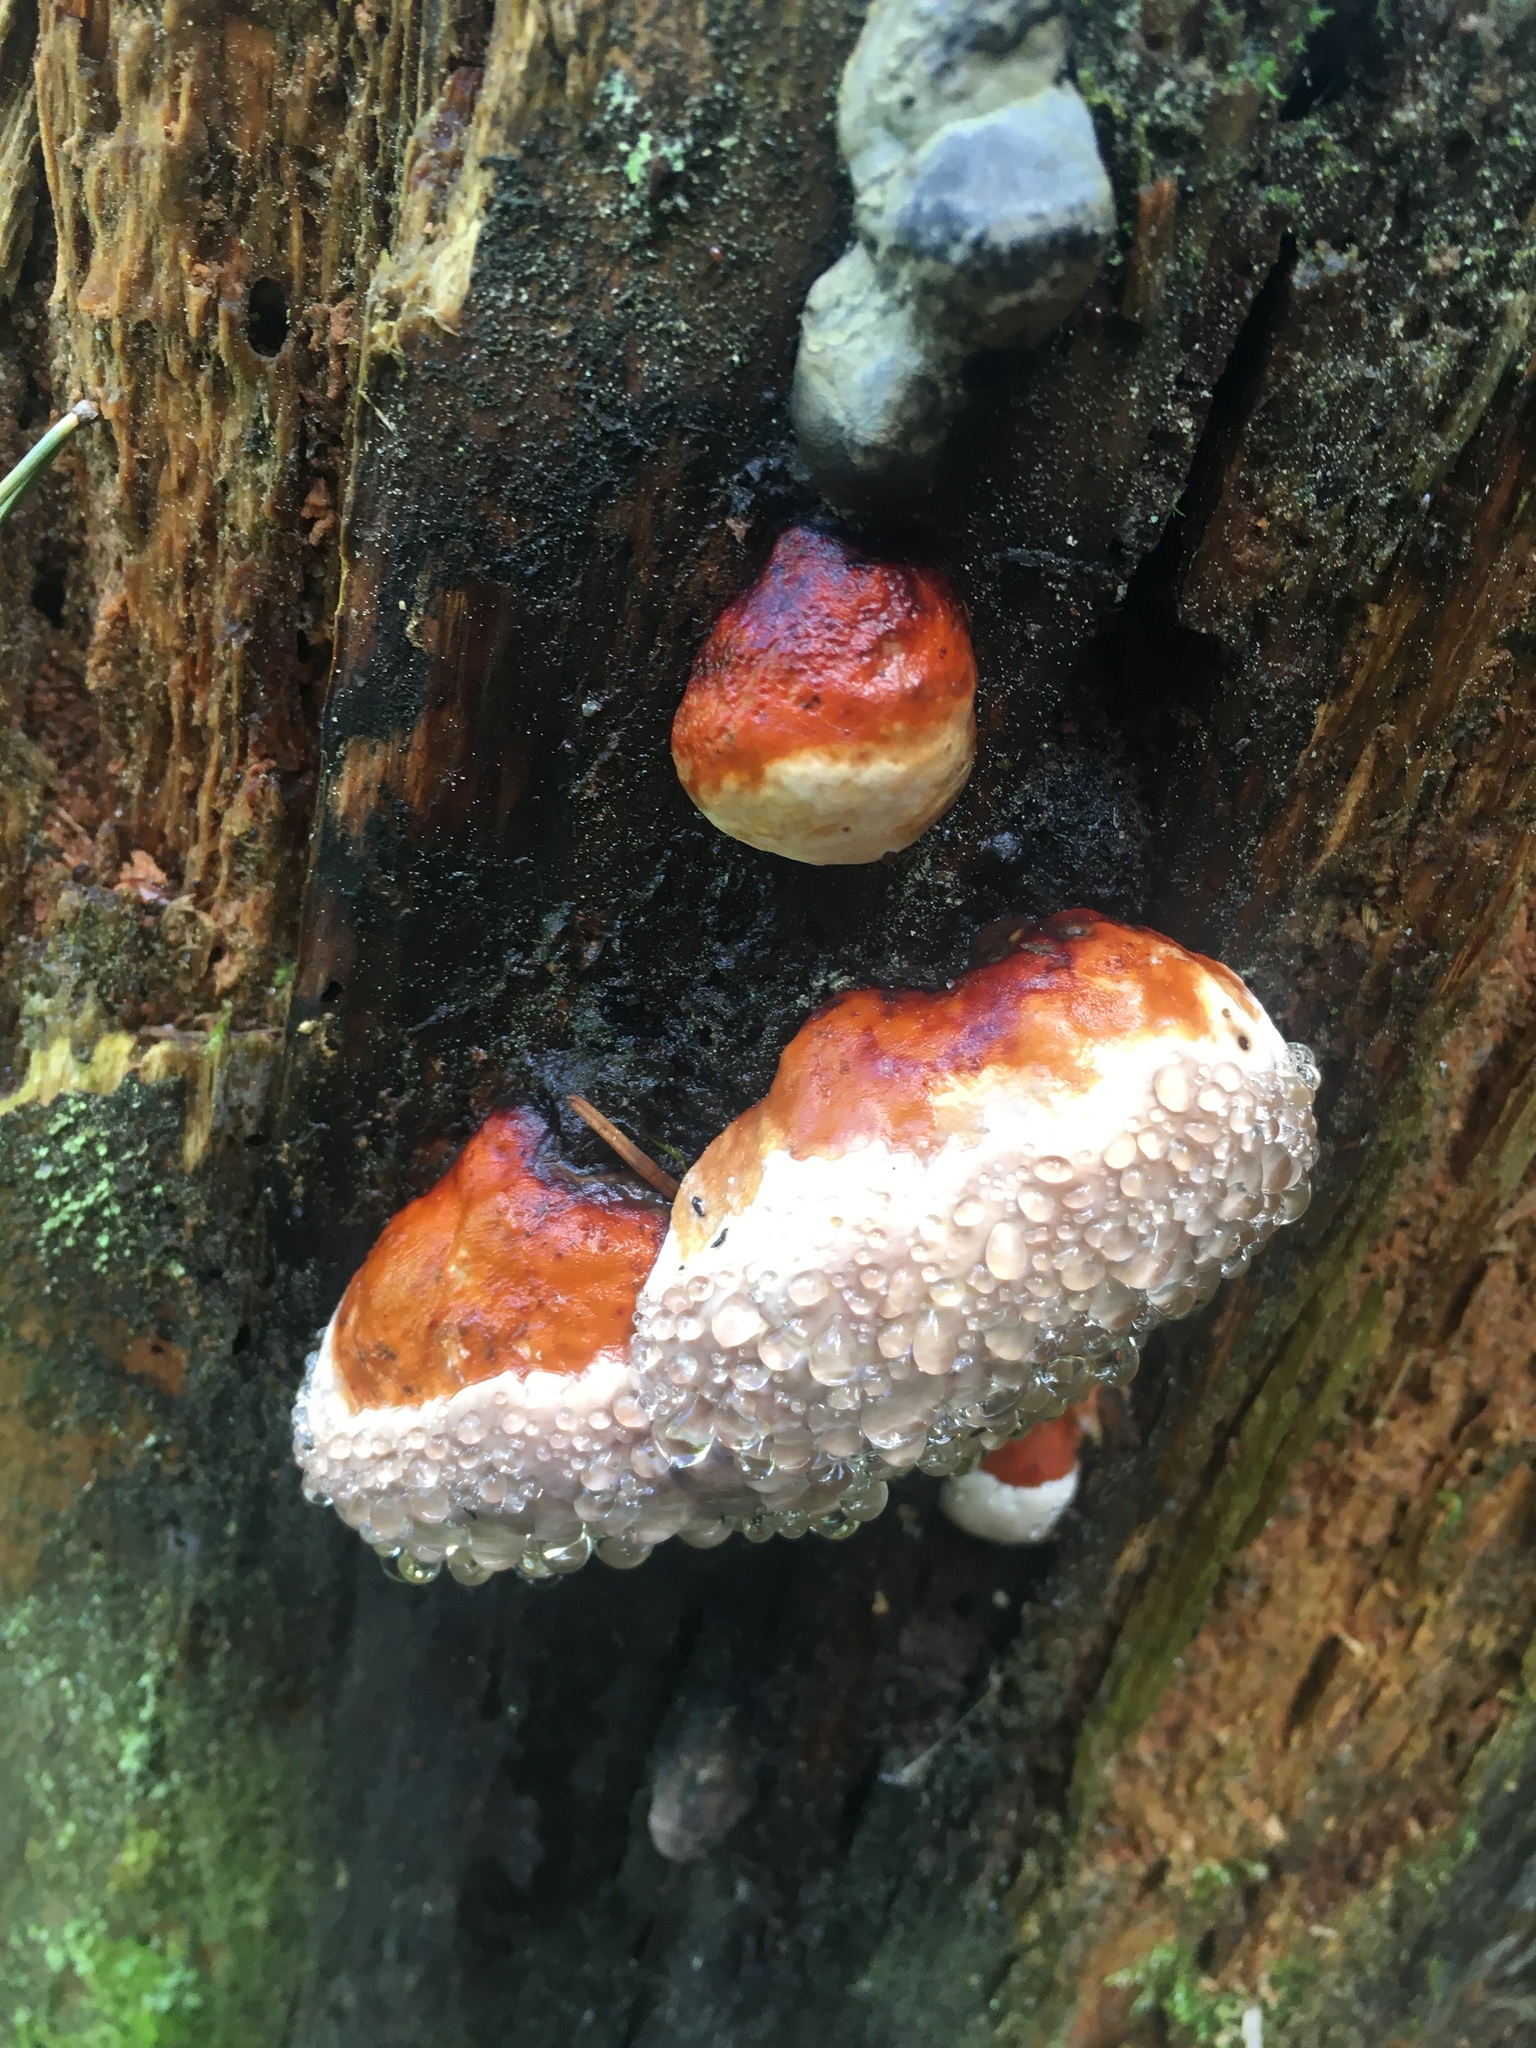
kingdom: Fungi
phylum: Basidiomycota
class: Agaricomycetes
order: Polyporales
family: Fomitopsidaceae
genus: Fomitopsis
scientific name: Fomitopsis pinicola
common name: Red-belted bracket
